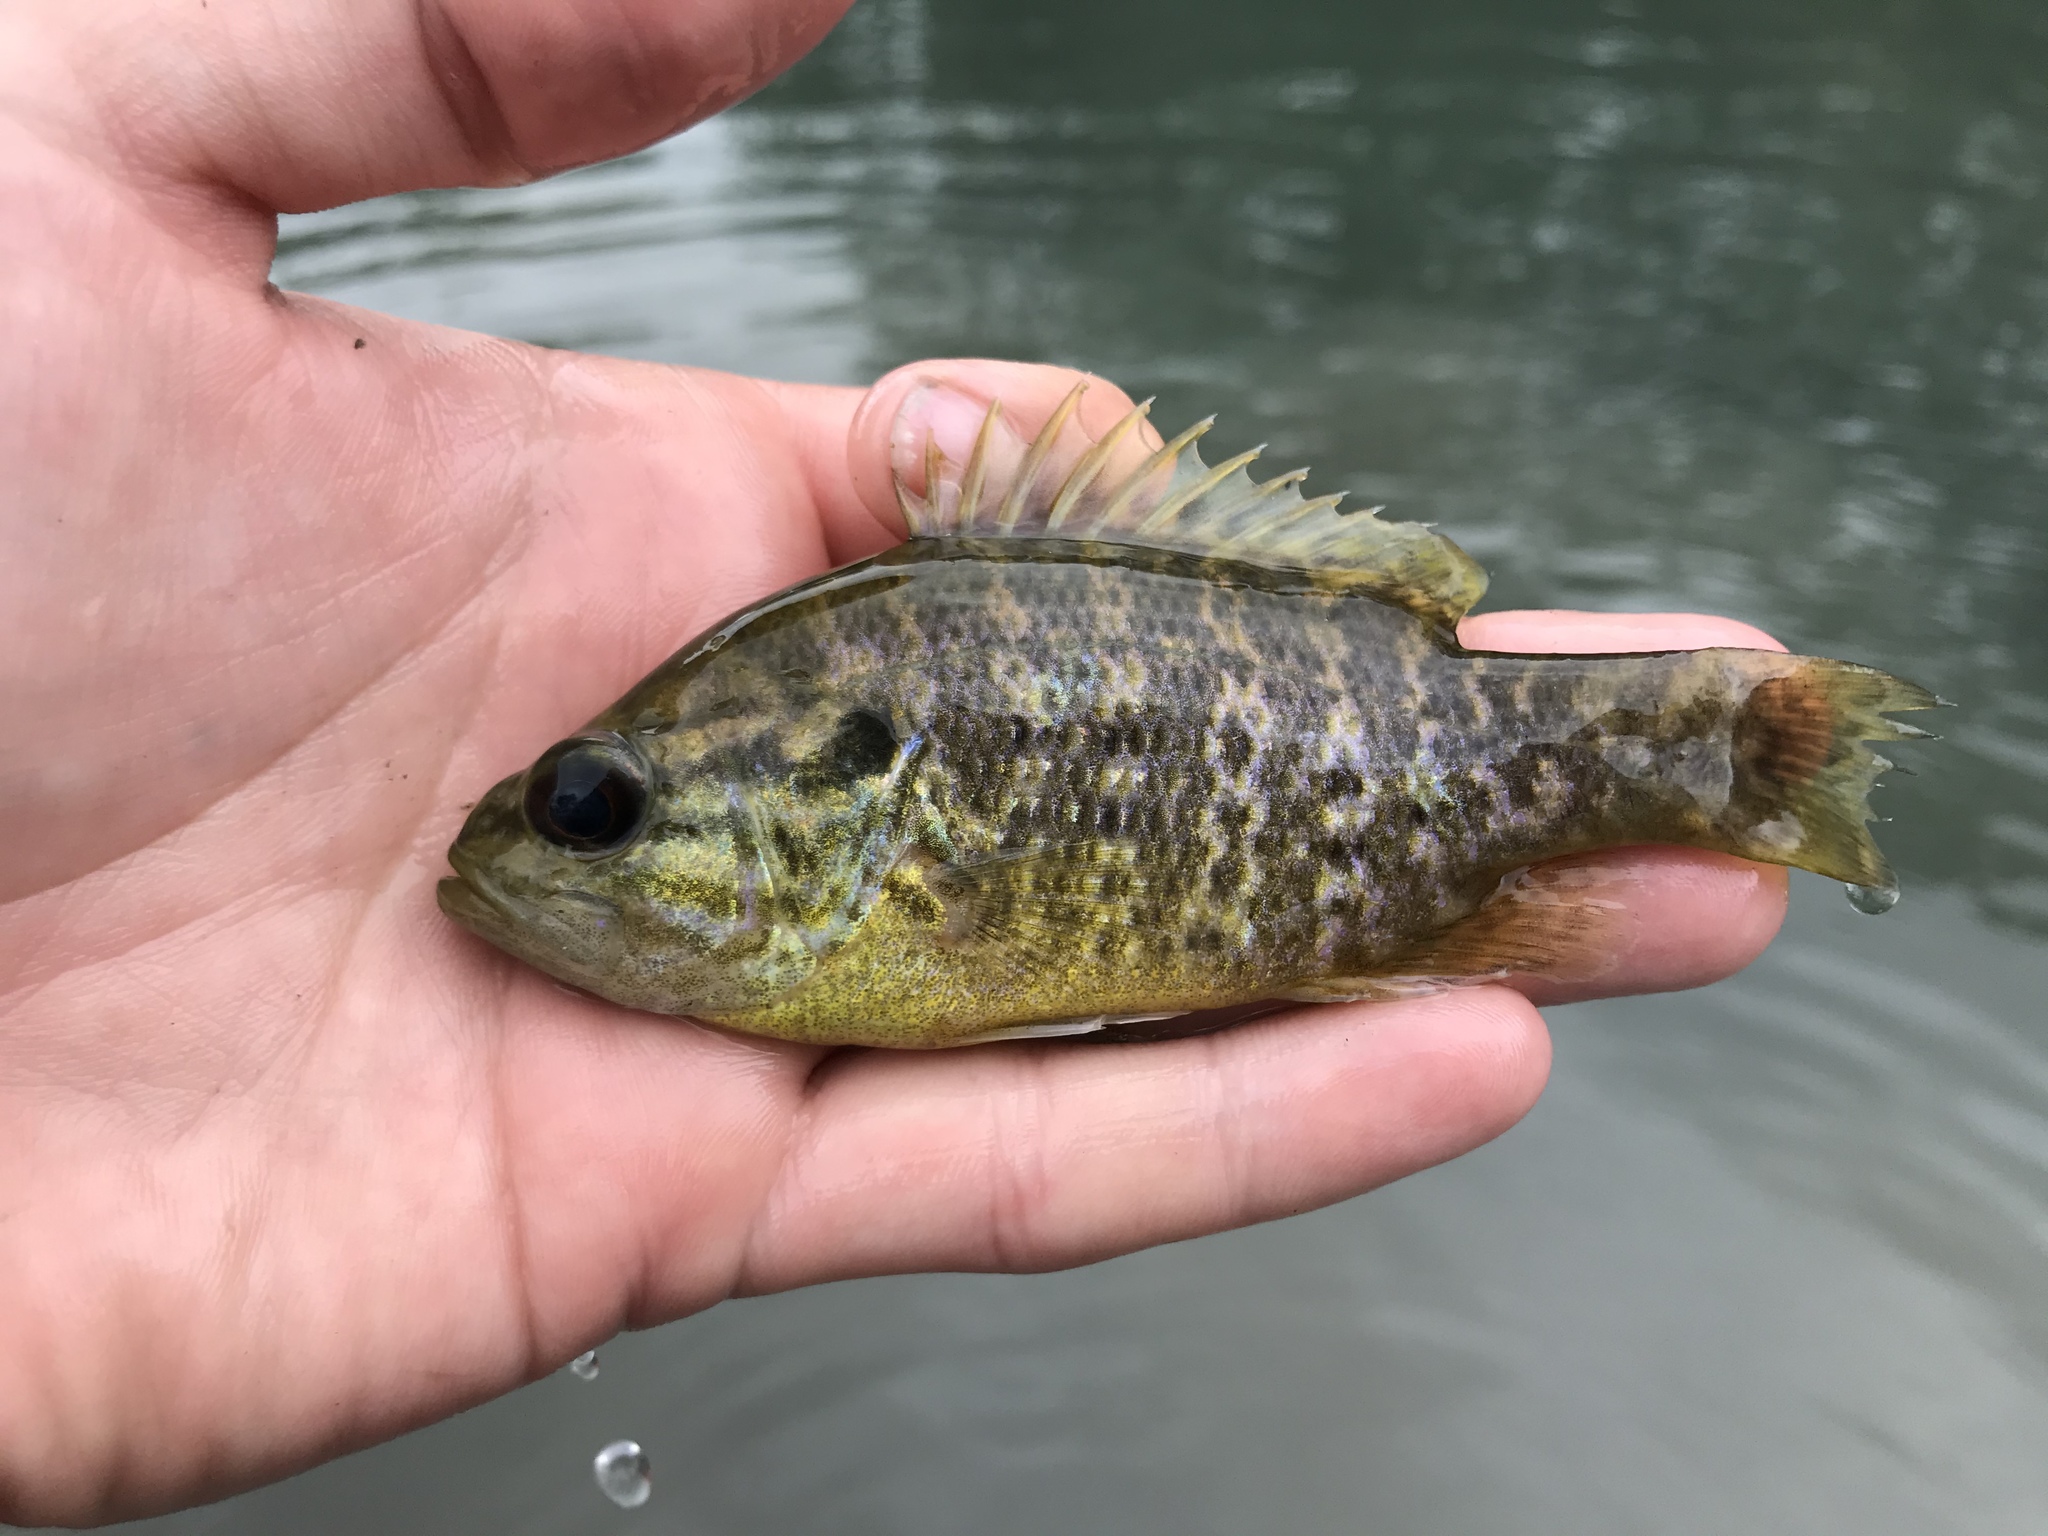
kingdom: Animalia
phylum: Chordata
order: Perciformes
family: Centrarchidae
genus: Lepomis
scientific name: Lepomis gulosus
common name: Warmouth
